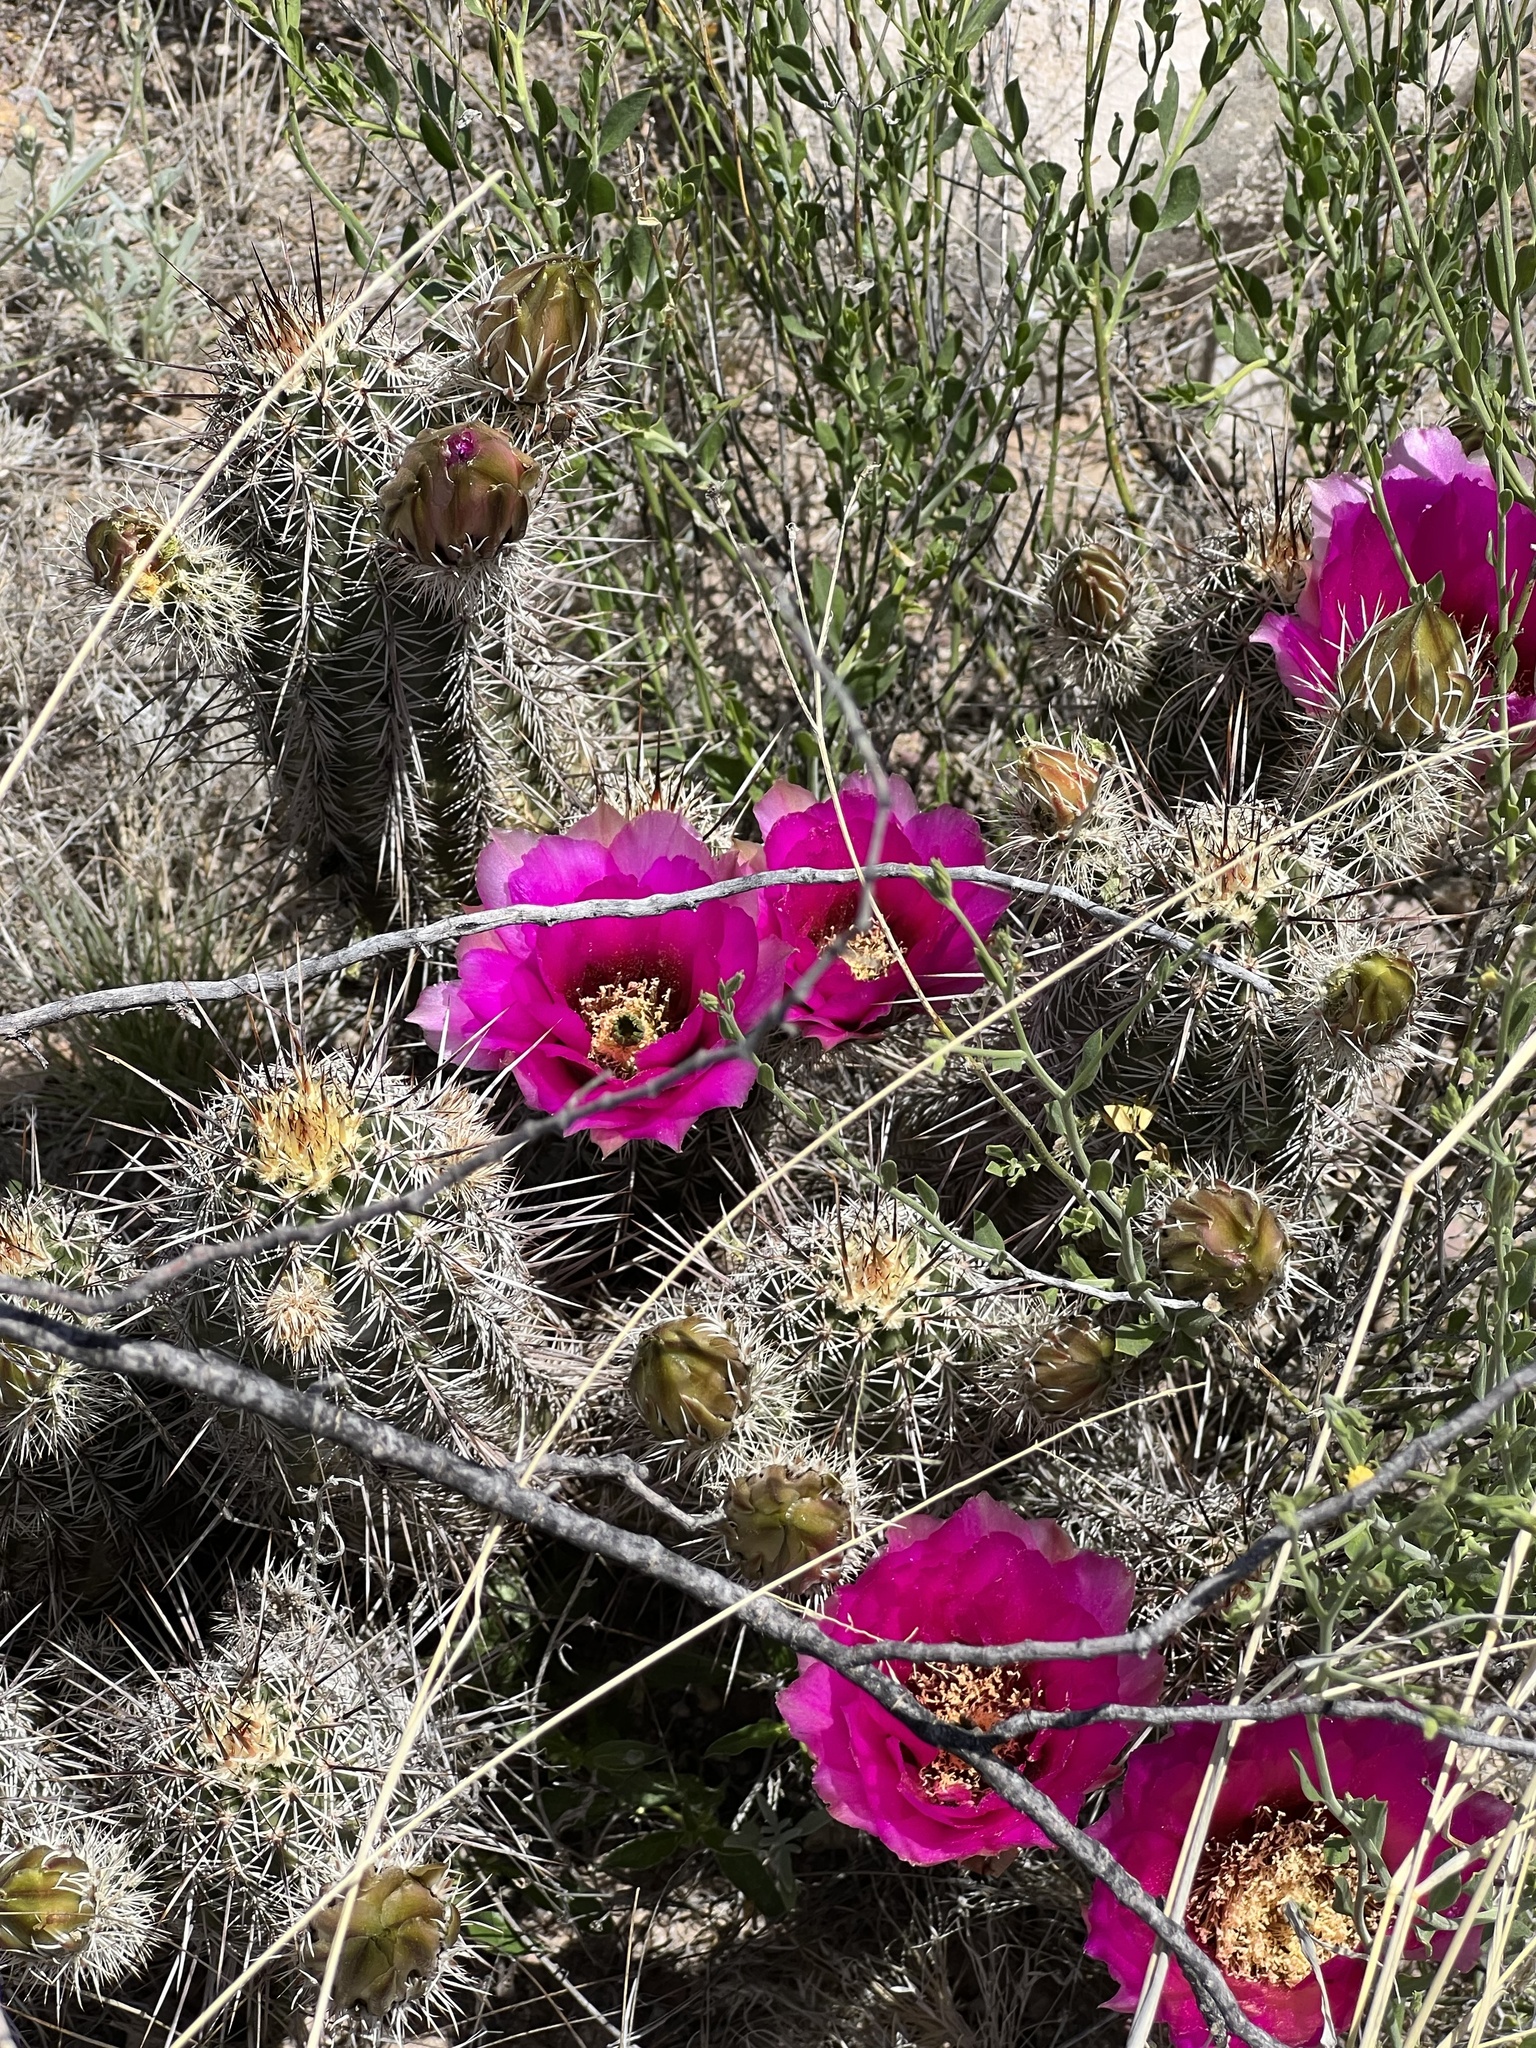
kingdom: Plantae
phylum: Tracheophyta
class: Magnoliopsida
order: Caryophyllales
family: Cactaceae
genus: Echinocereus
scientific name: Echinocereus fasciculatus
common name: Bundle hedgehog
